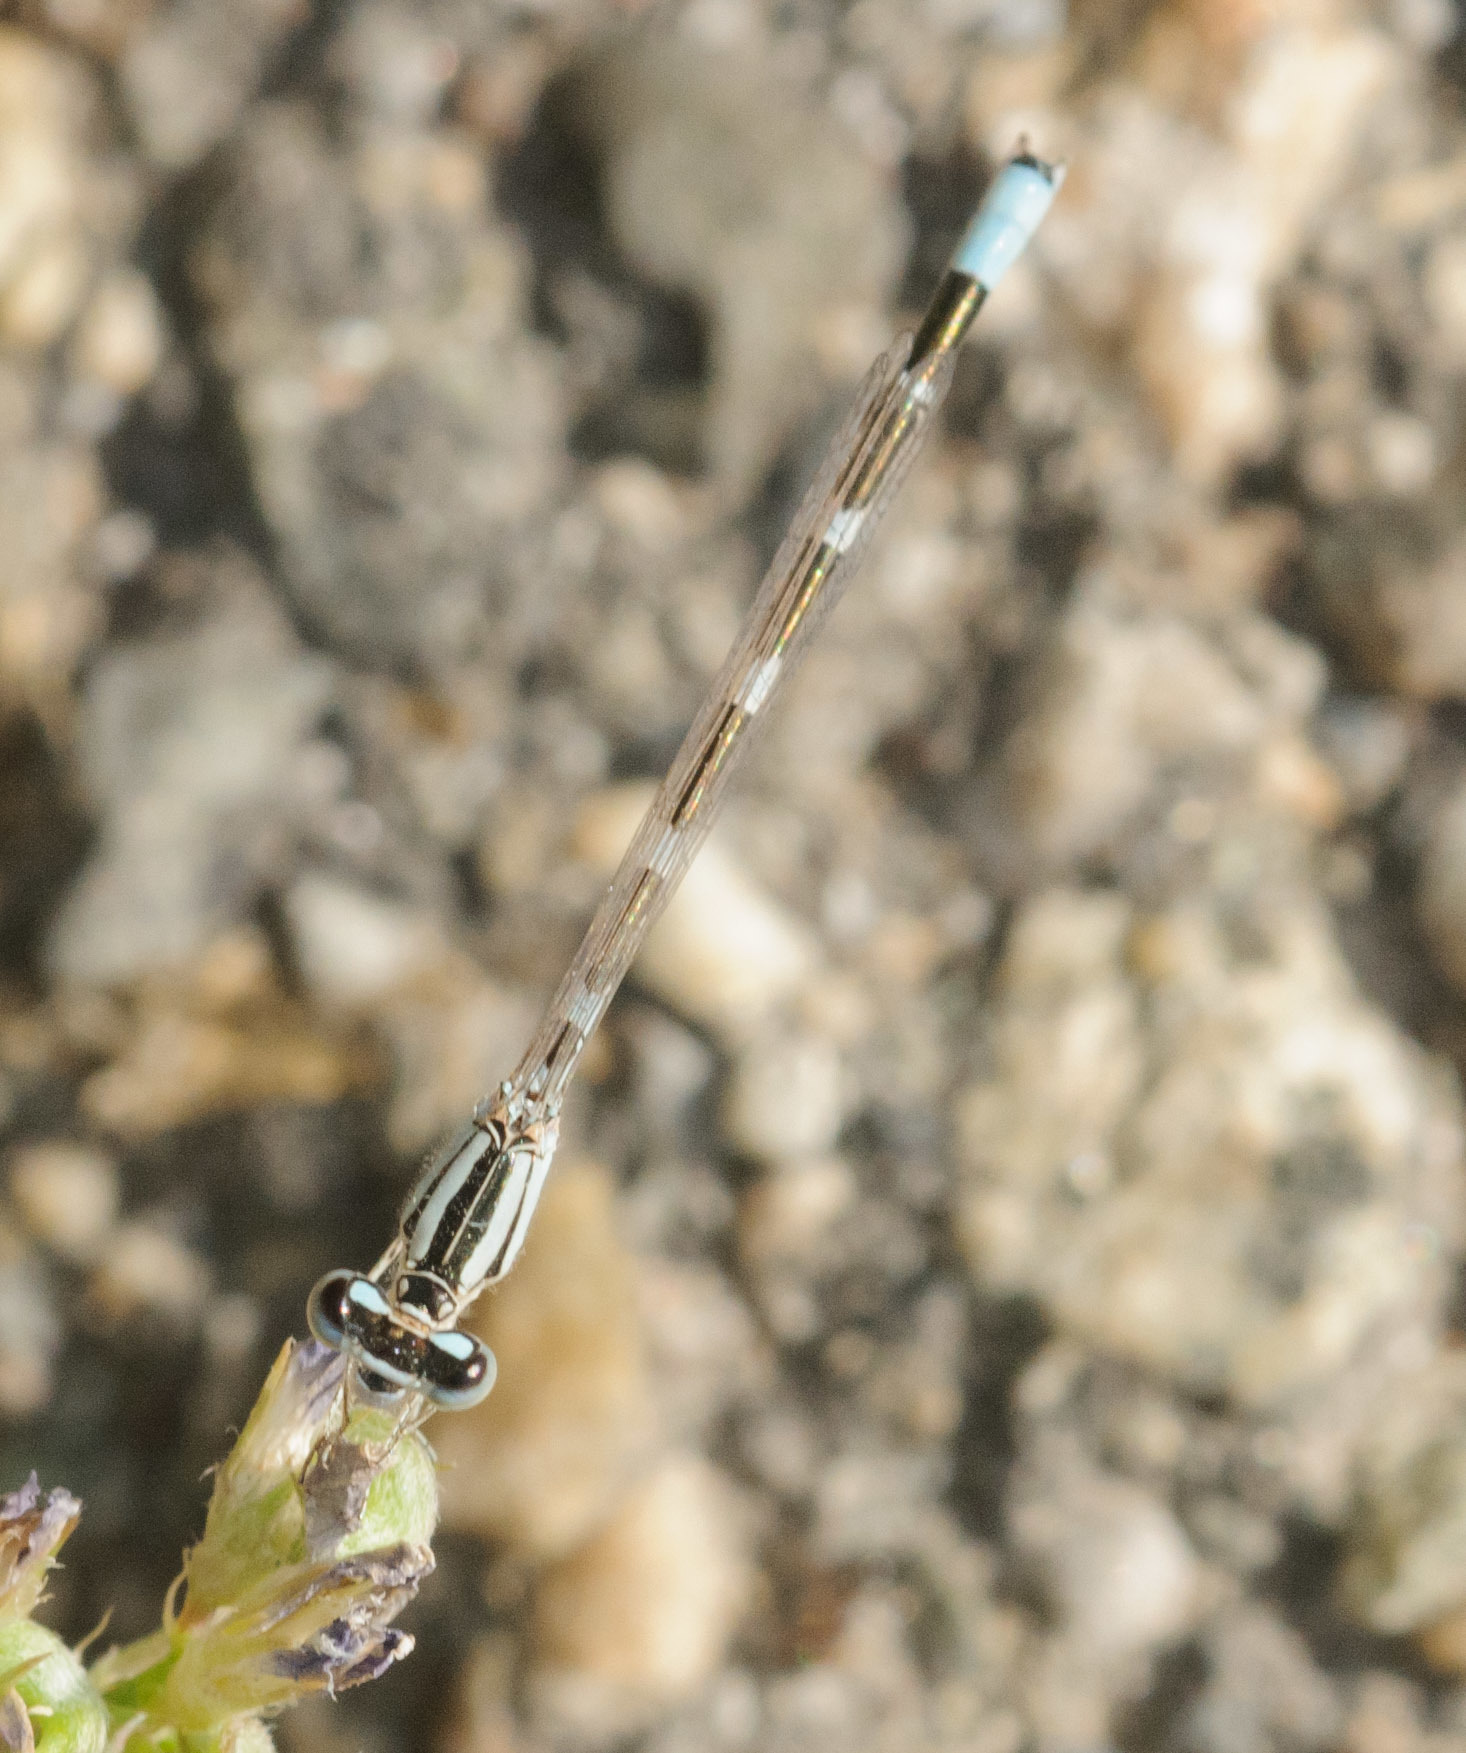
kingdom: Animalia
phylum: Arthropoda
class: Insecta
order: Odonata
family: Coenagrionidae
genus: Enallagma
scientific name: Enallagma carunculatum
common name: Tule bluet
